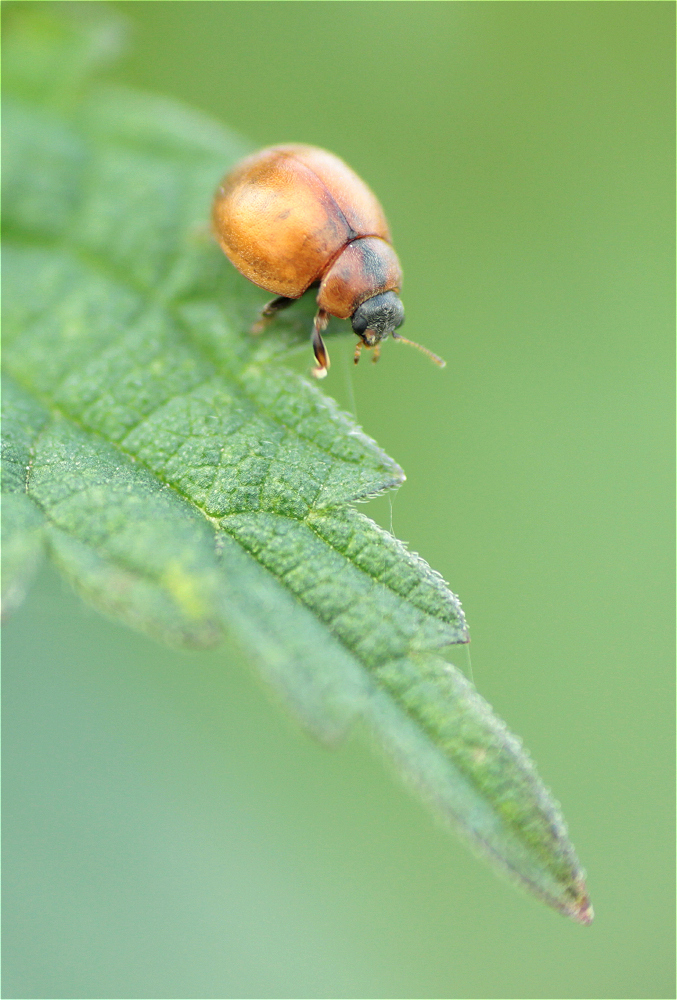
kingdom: Animalia
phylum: Arthropoda
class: Insecta
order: Coleoptera
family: Coccinellidae
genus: Cynegetis
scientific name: Cynegetis impunctata
